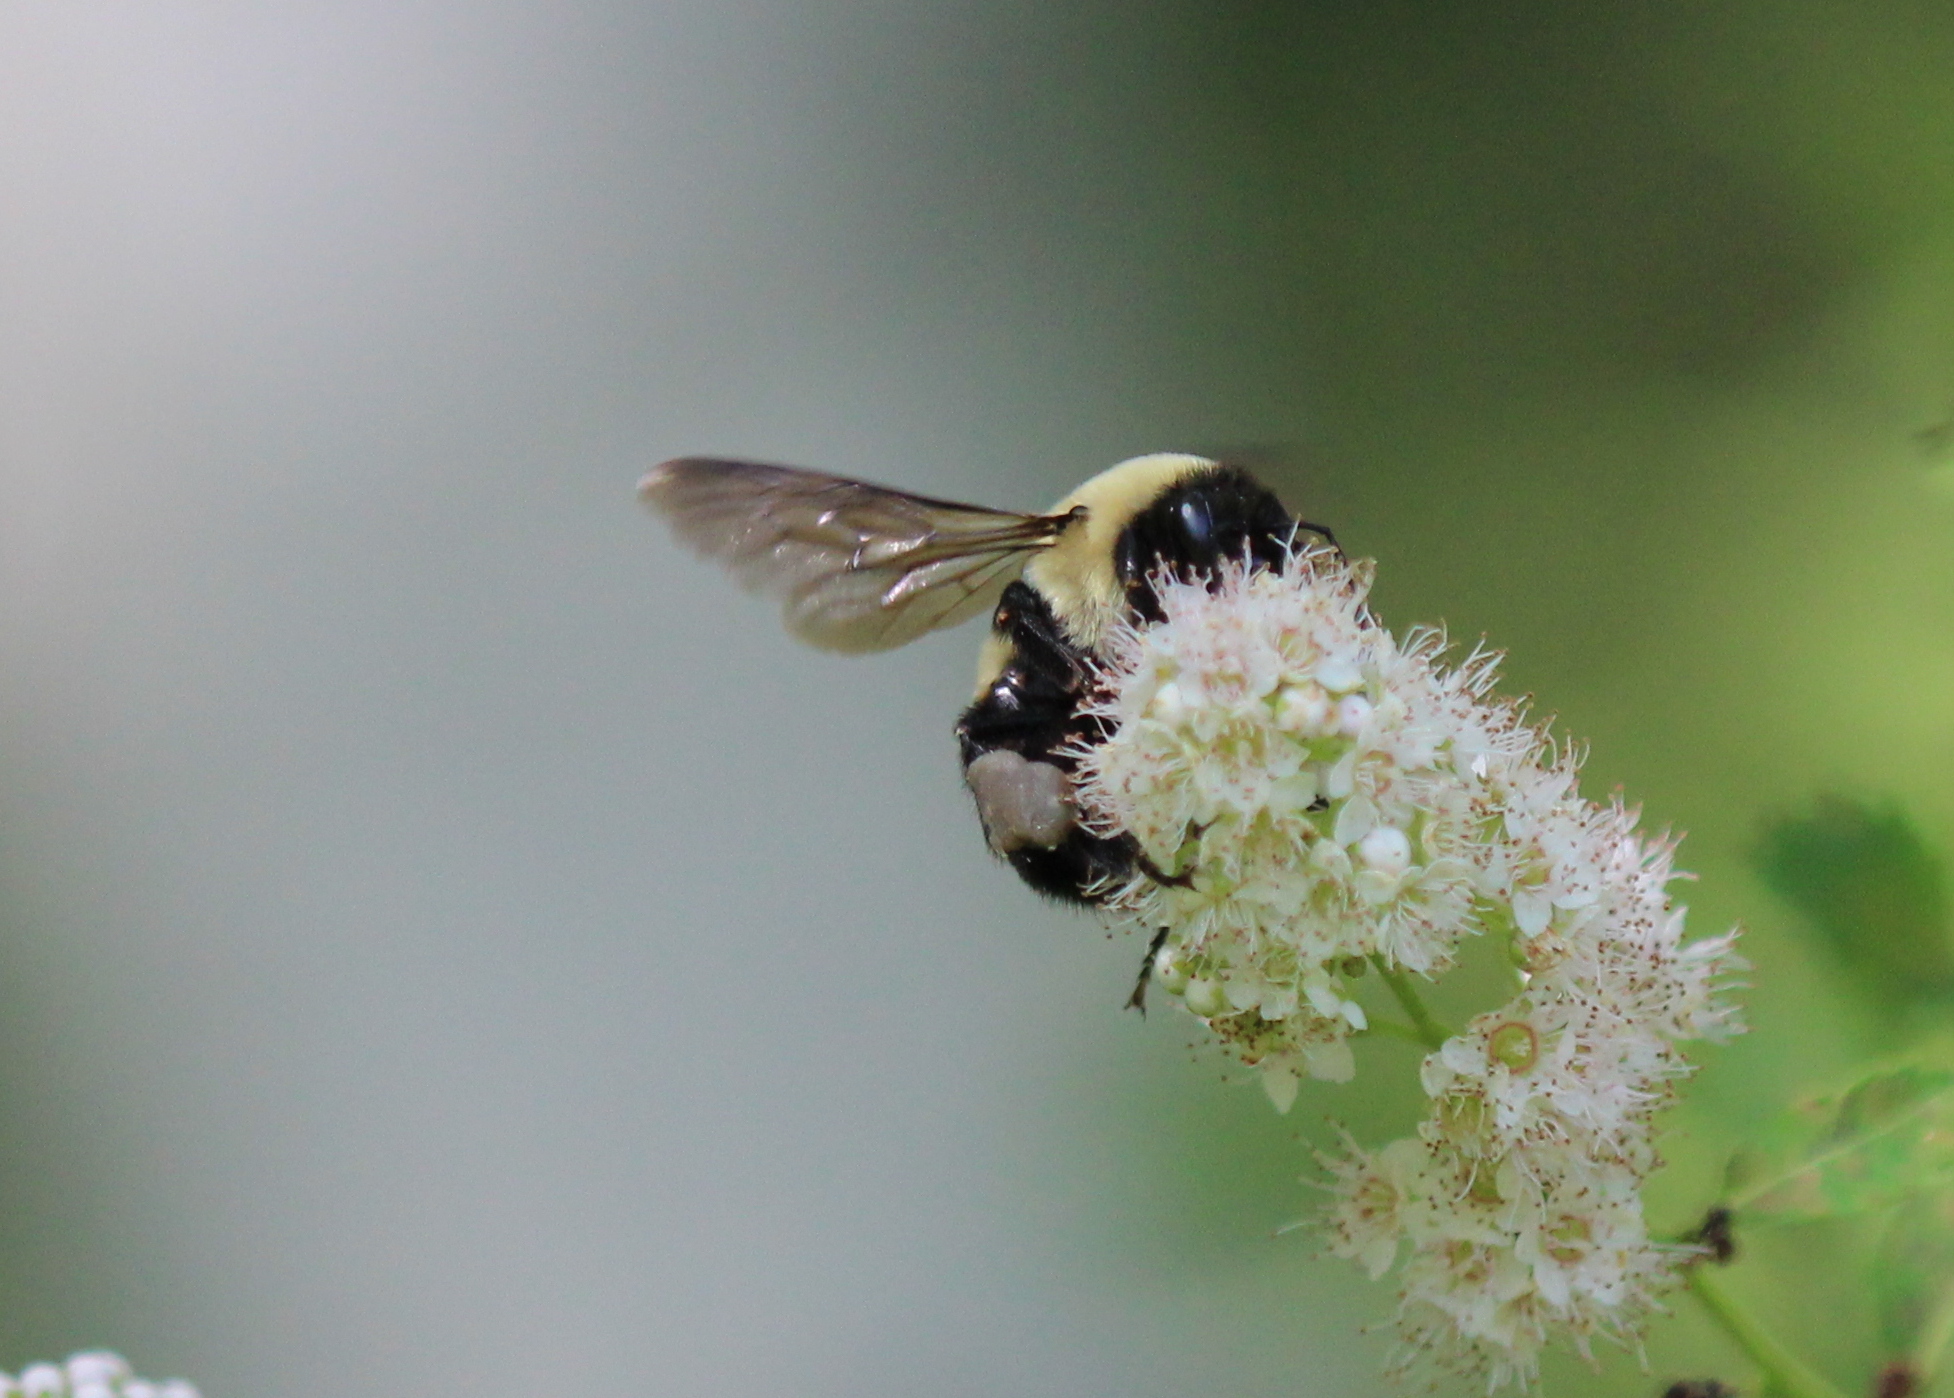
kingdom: Animalia
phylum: Arthropoda
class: Insecta
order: Hymenoptera
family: Apidae
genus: Bombus
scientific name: Bombus griseocollis
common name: Brown-belted bumble bee
